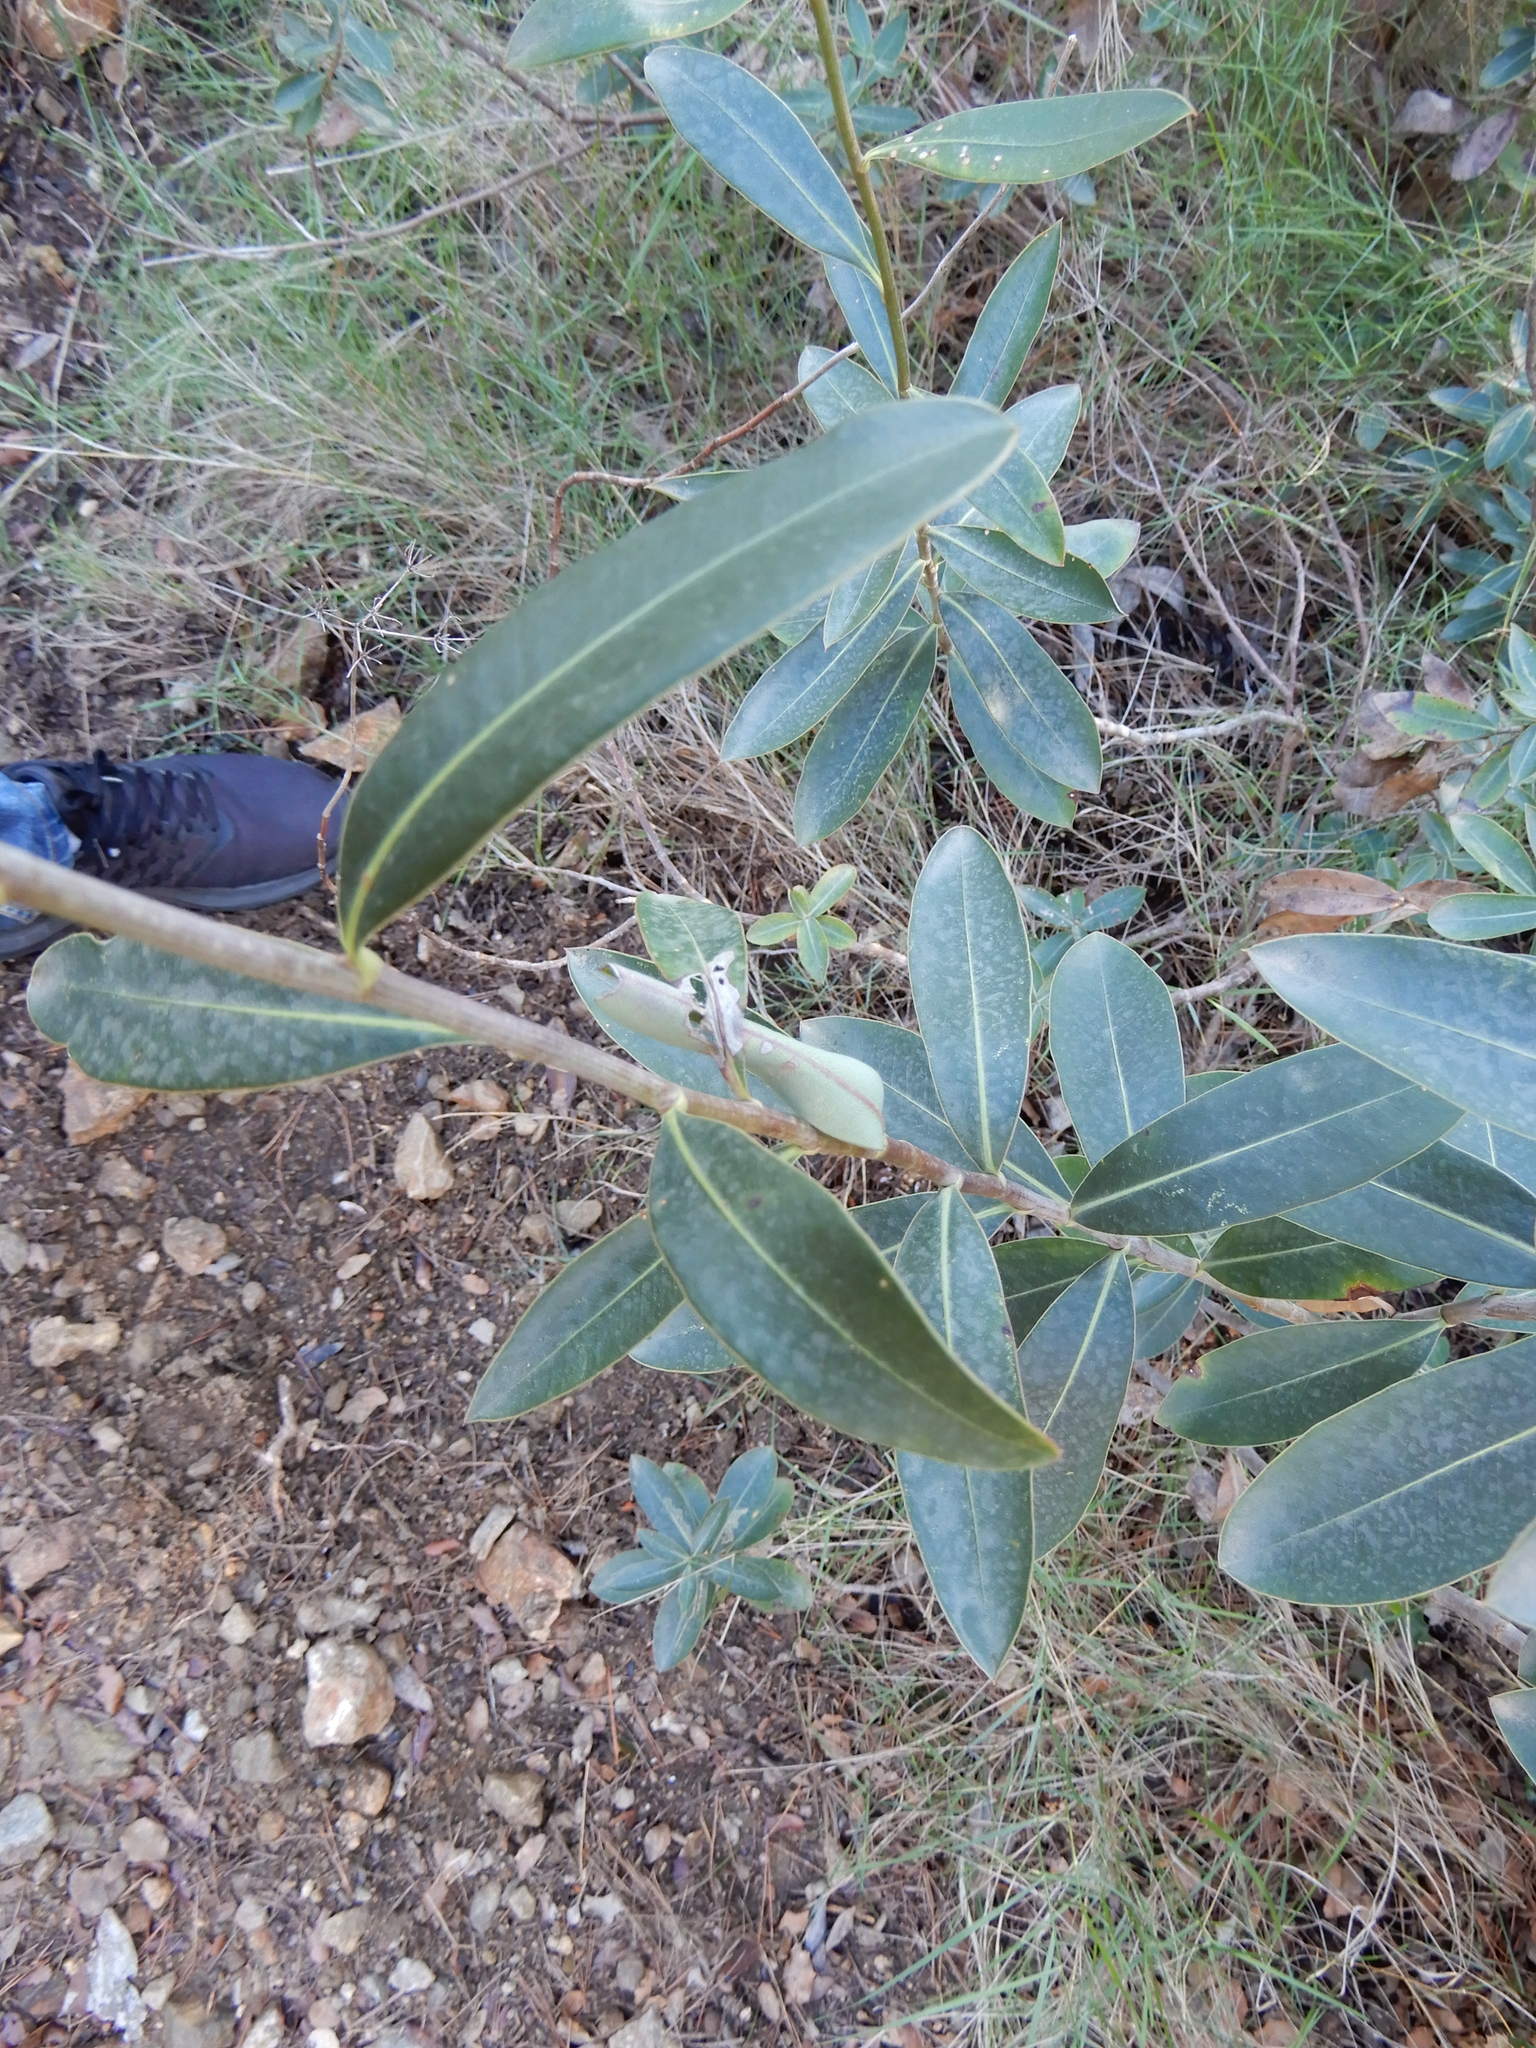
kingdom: Plantae
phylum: Tracheophyta
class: Magnoliopsida
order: Apiales
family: Apiaceae
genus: Bupleurum
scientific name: Bupleurum fruticosum
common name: Shrubby hare's-ear
